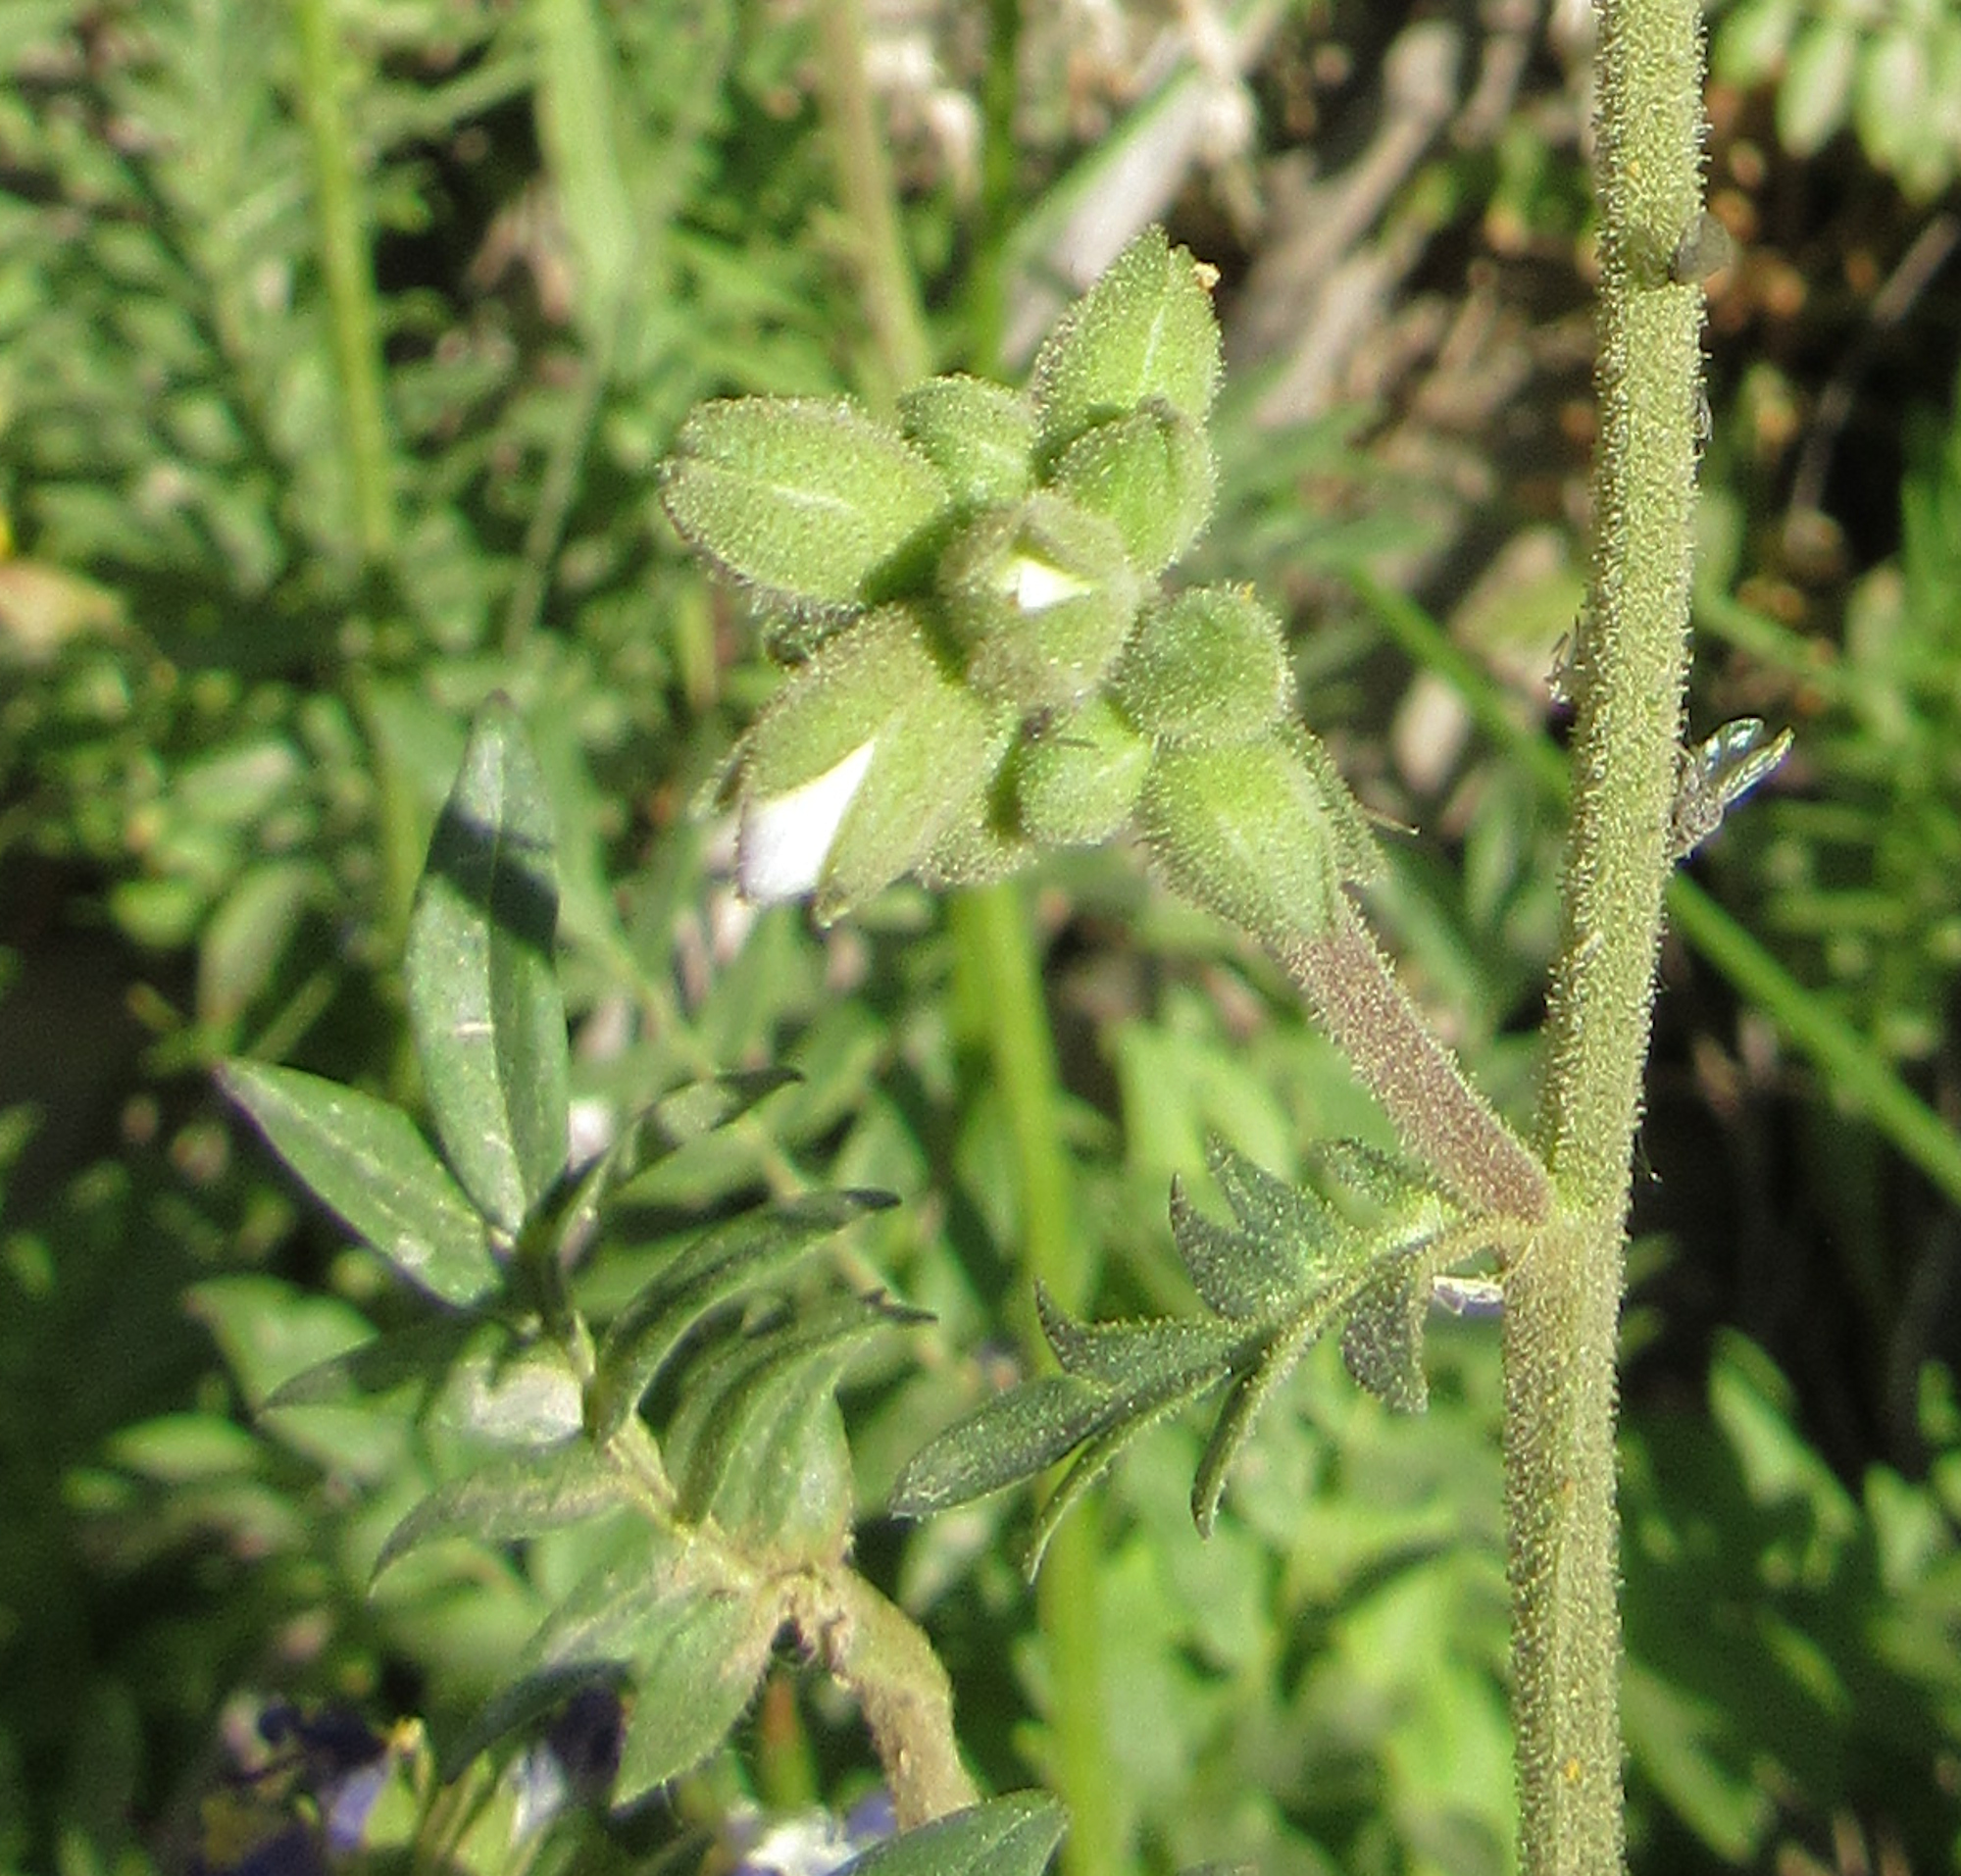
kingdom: Plantae
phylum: Tracheophyta
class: Magnoliopsida
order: Ericales
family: Polemoniaceae
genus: Polemonium
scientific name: Polemonium occidentale
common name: Western jacob's-ladder
